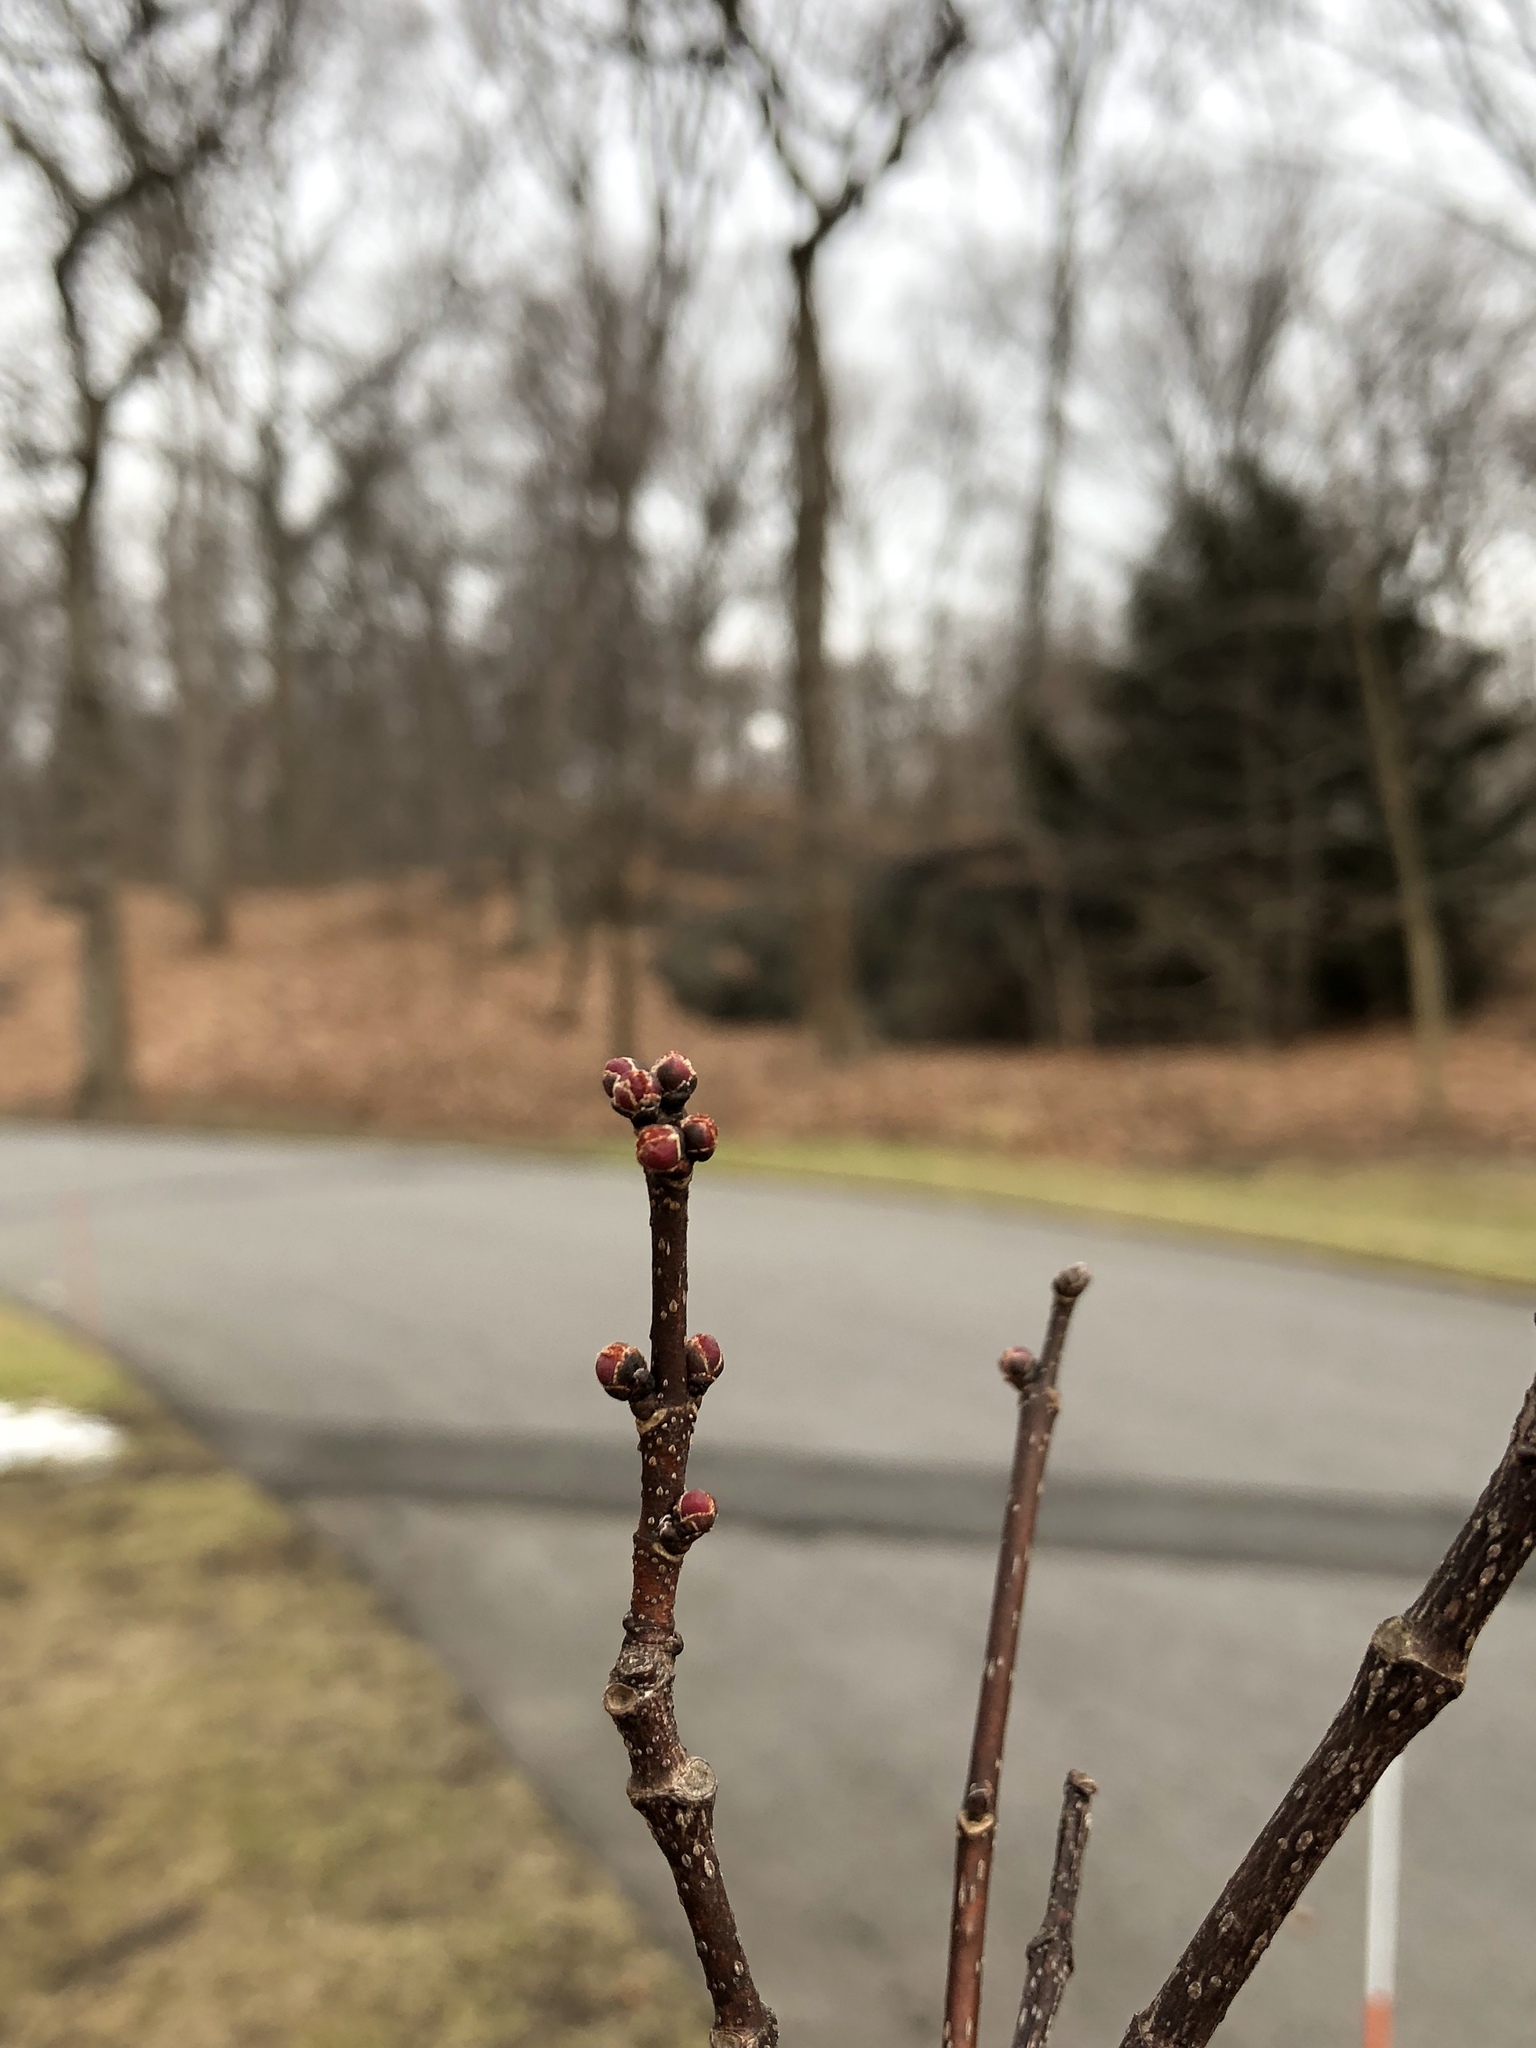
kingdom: Plantae
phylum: Tracheophyta
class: Magnoliopsida
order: Sapindales
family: Sapindaceae
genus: Acer
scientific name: Acer rubrum
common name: Red maple
